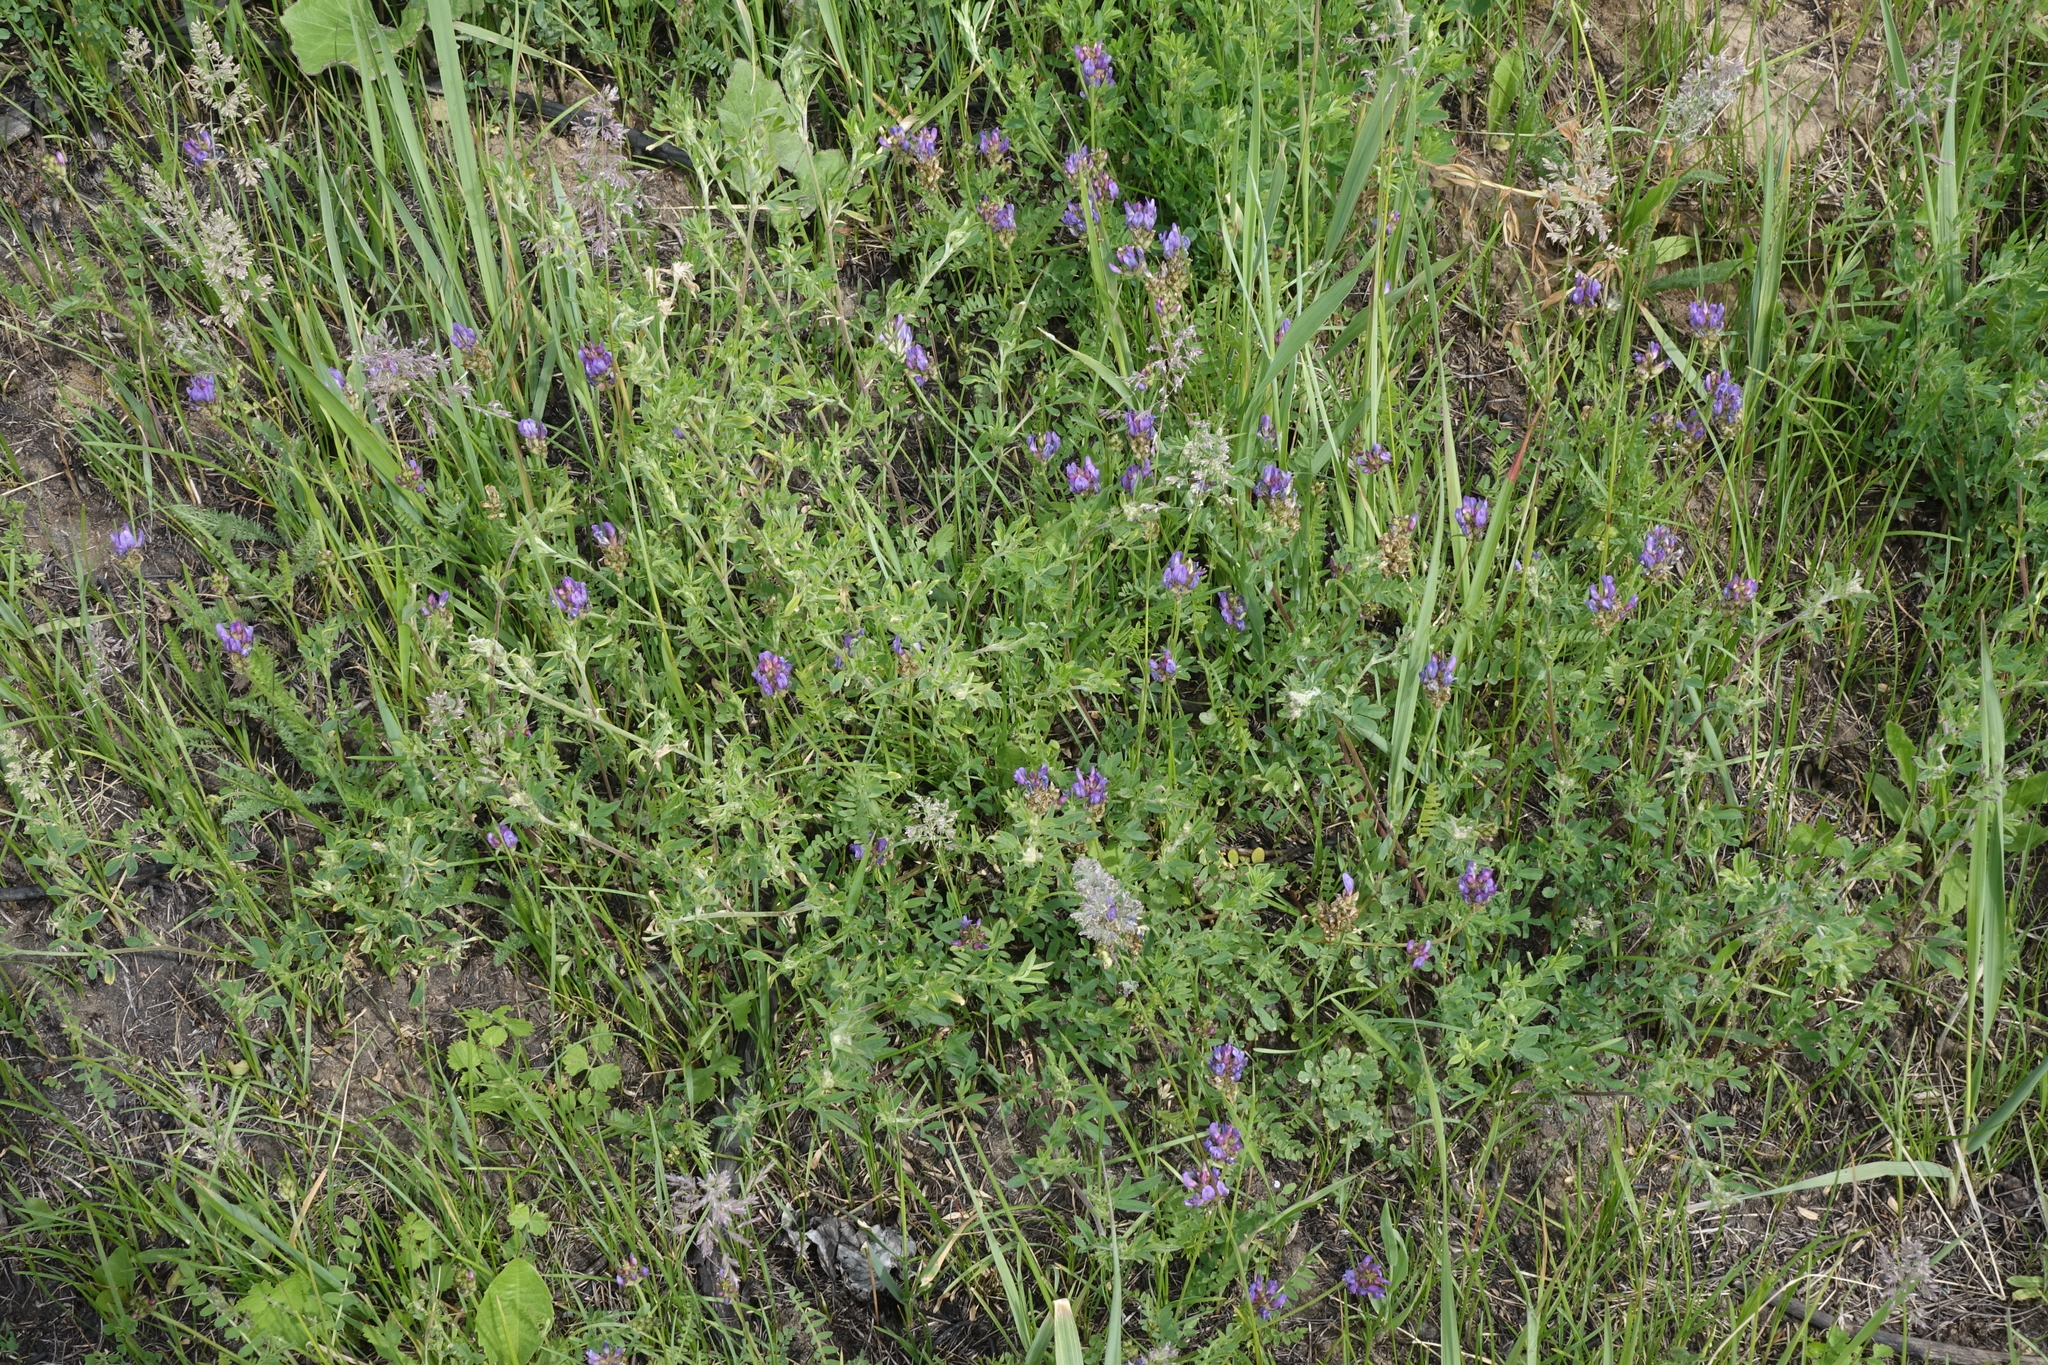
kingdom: Plantae
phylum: Tracheophyta
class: Magnoliopsida
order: Fabales
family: Fabaceae
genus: Astragalus
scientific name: Astragalus danicus
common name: Purple milk-vetch
